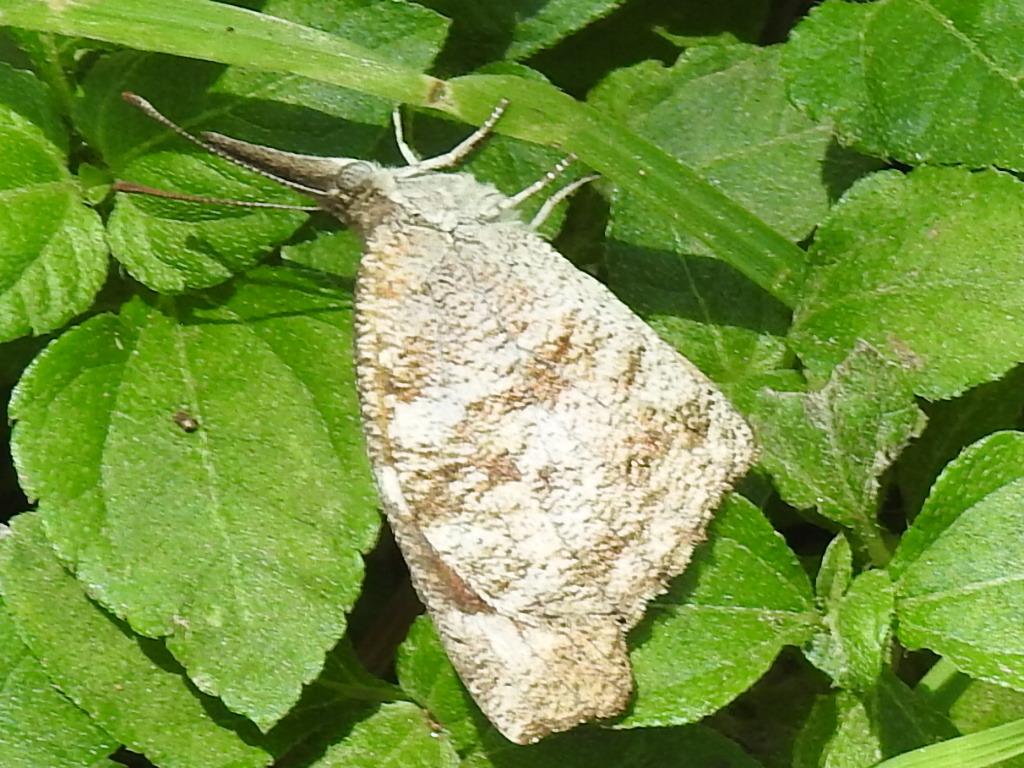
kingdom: Animalia
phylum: Arthropoda
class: Insecta
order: Lepidoptera
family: Nymphalidae
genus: Libytheana
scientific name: Libytheana carinenta
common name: American snout
